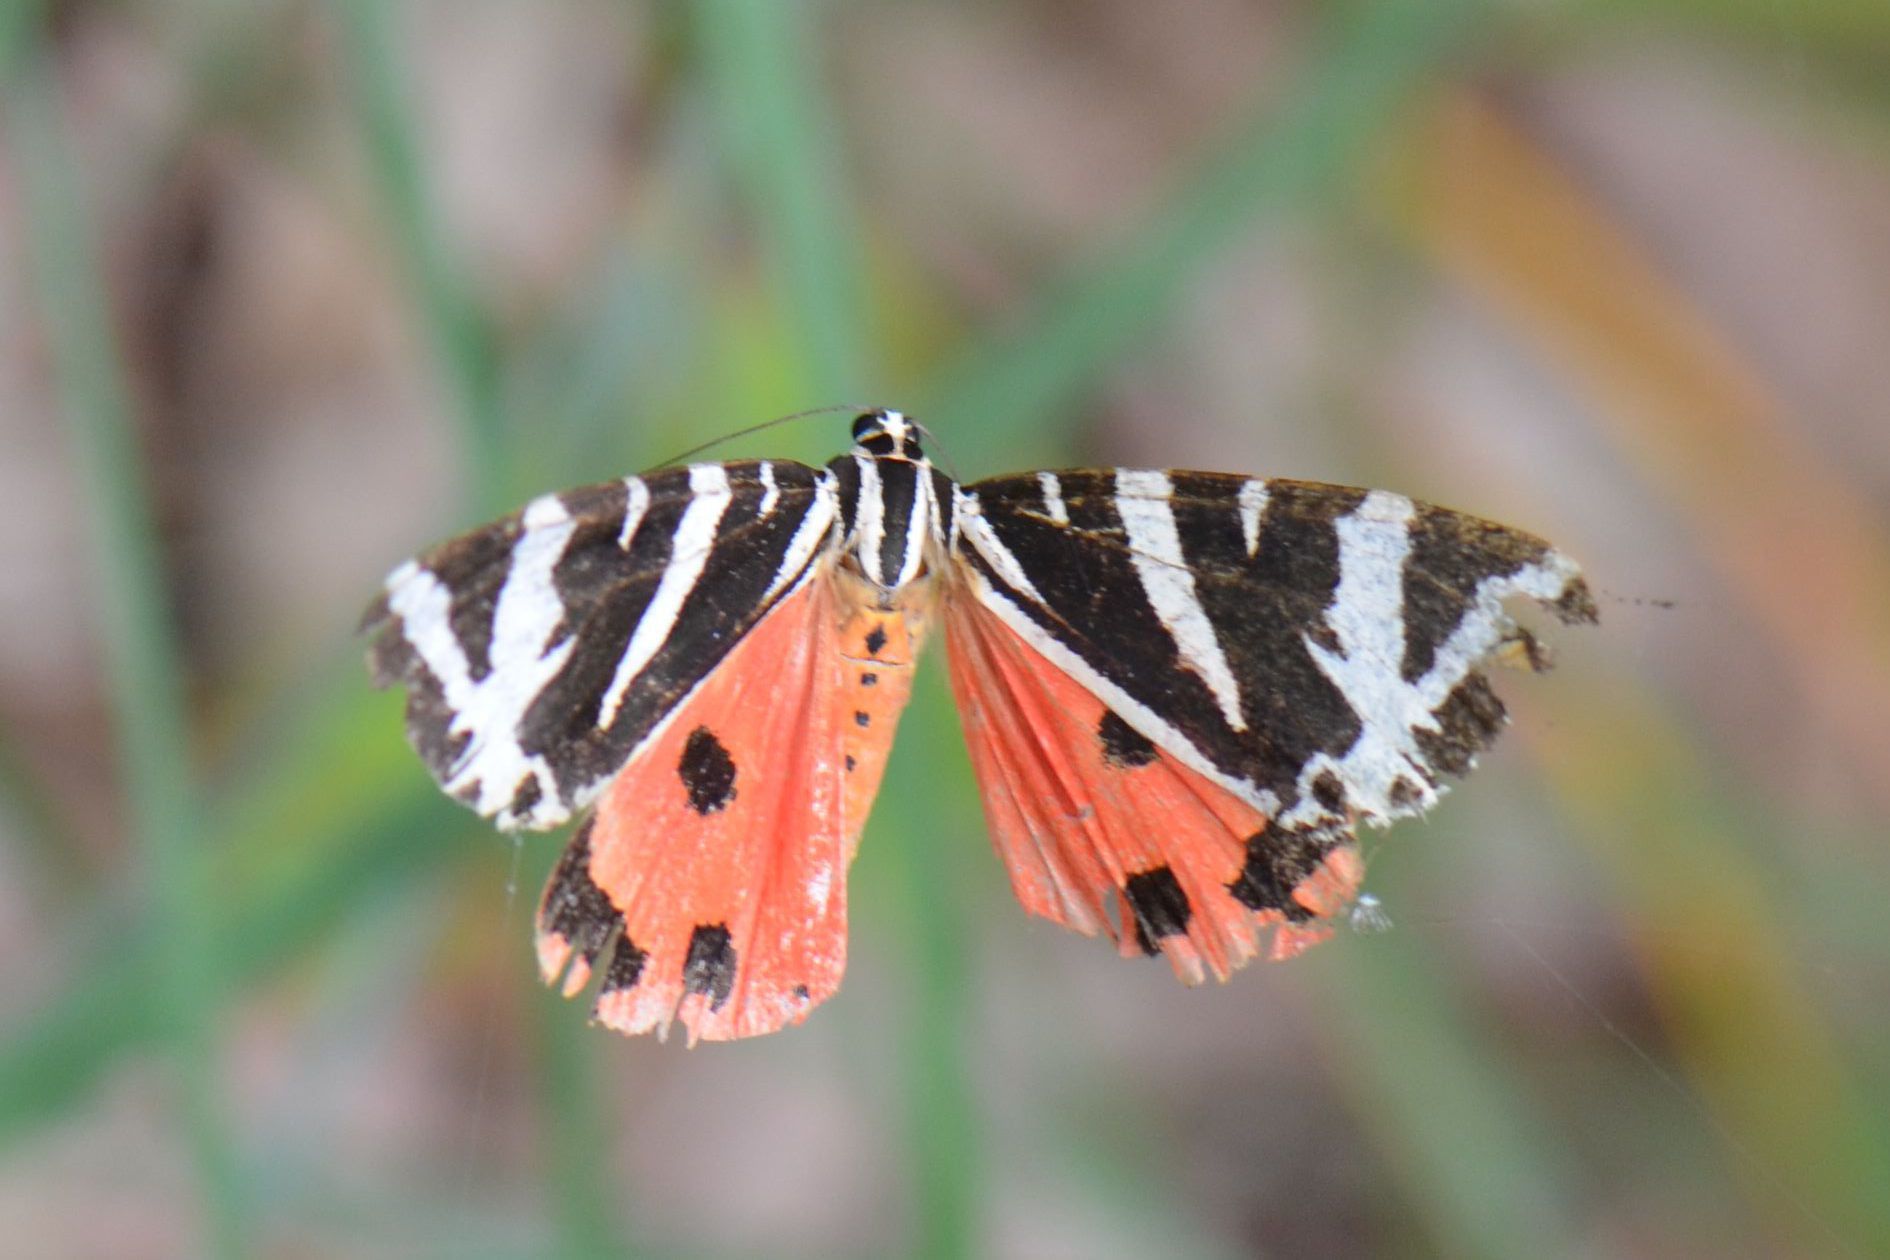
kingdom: Animalia
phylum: Arthropoda
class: Insecta
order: Lepidoptera
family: Erebidae
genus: Euplagia
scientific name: Euplagia quadripunctaria
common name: Jersey tiger
